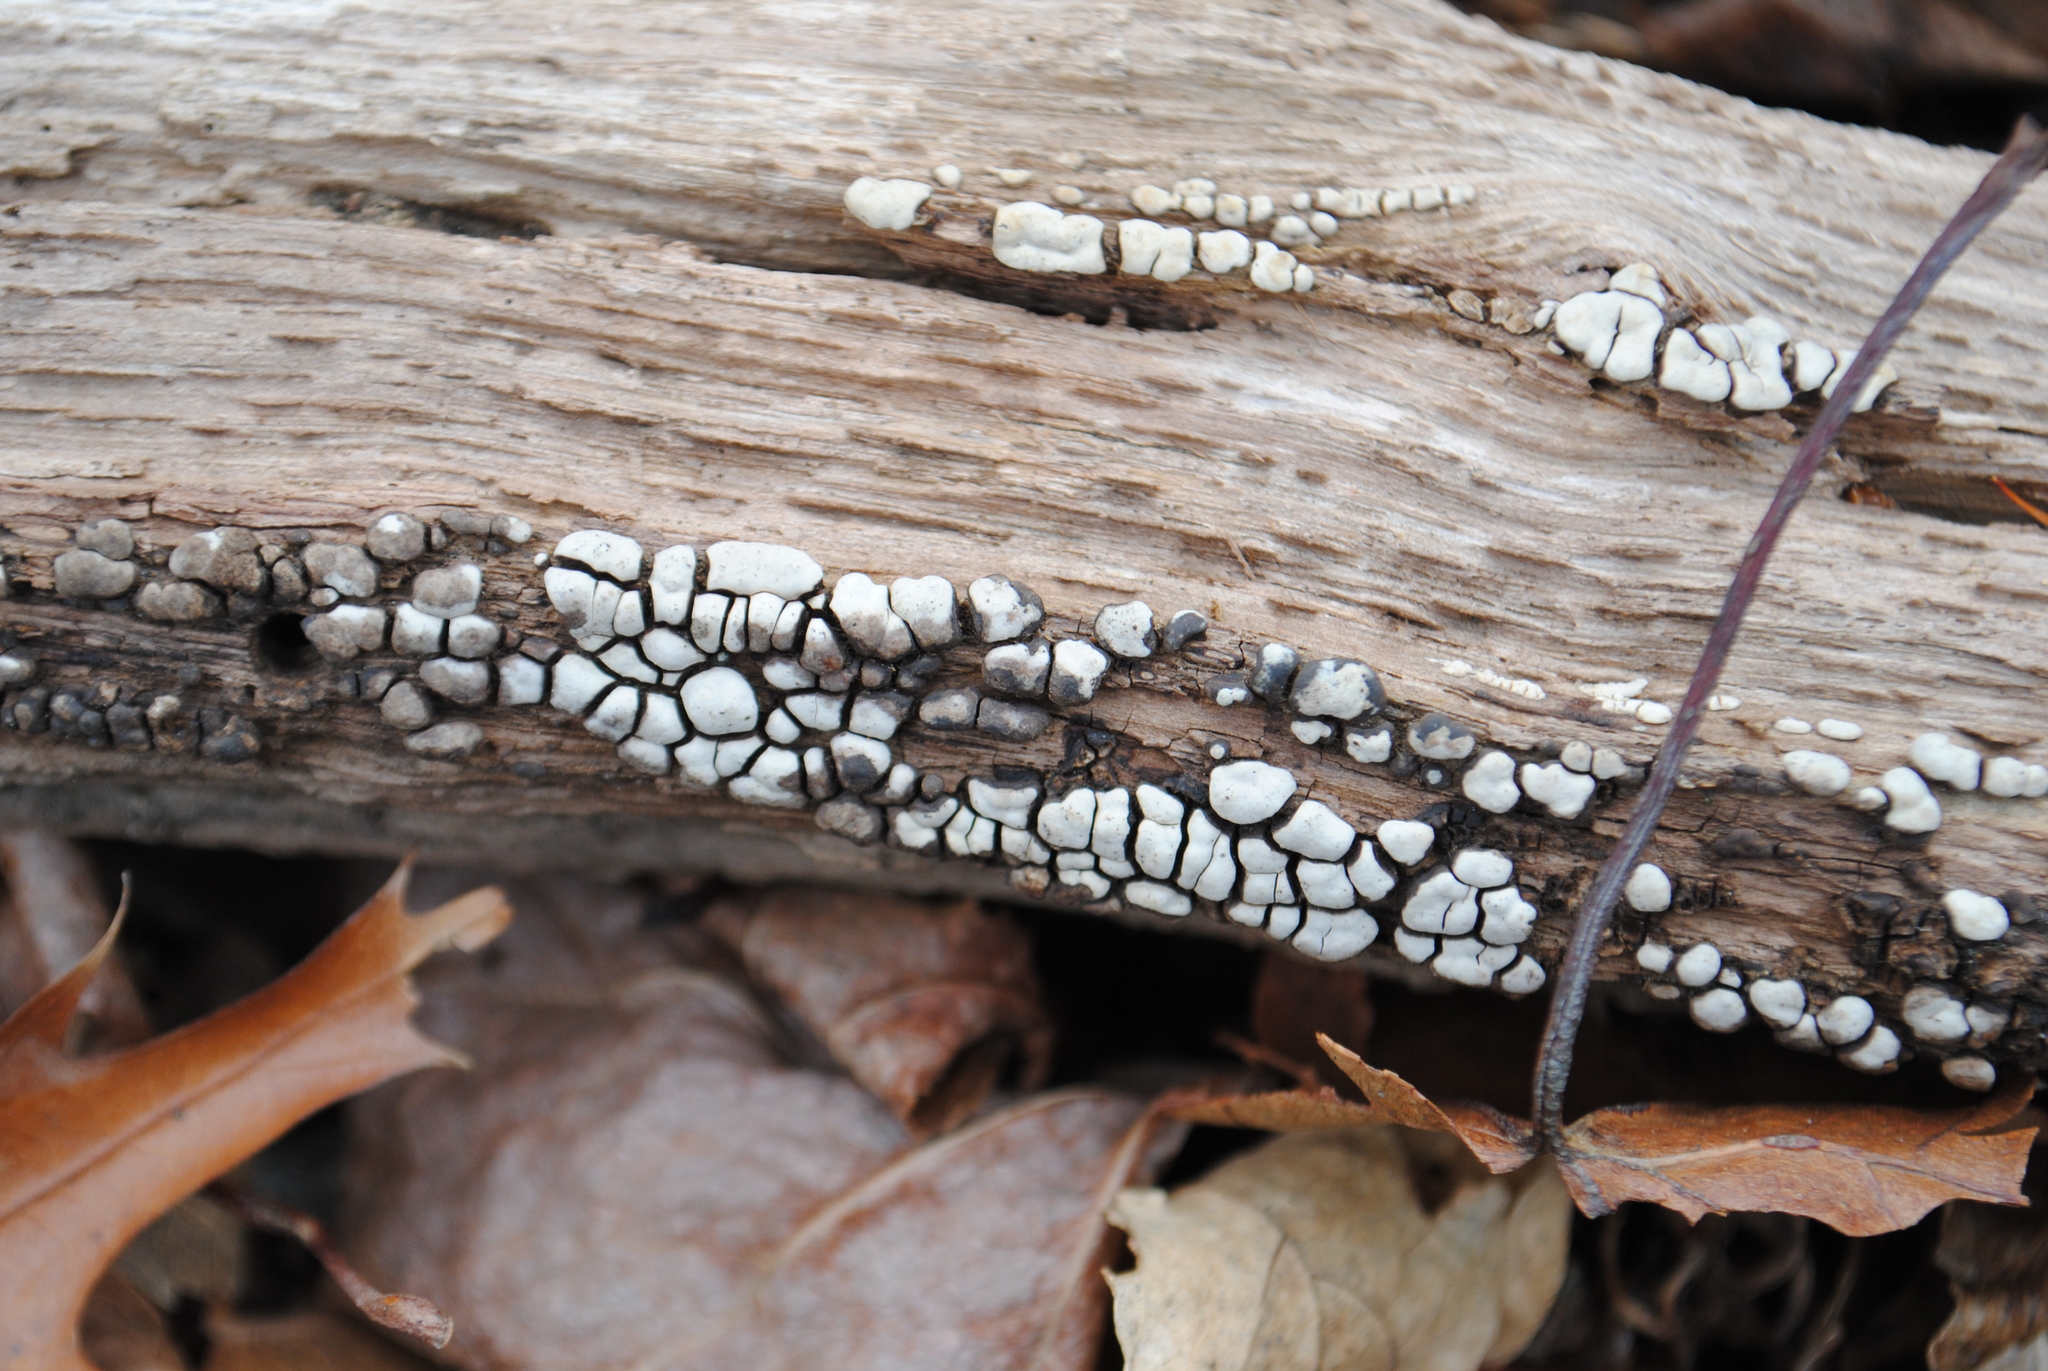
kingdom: Fungi
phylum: Basidiomycota
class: Agaricomycetes
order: Russulales
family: Stereaceae
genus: Xylobolus
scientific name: Xylobolus frustulatus
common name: Ceramic parchment
